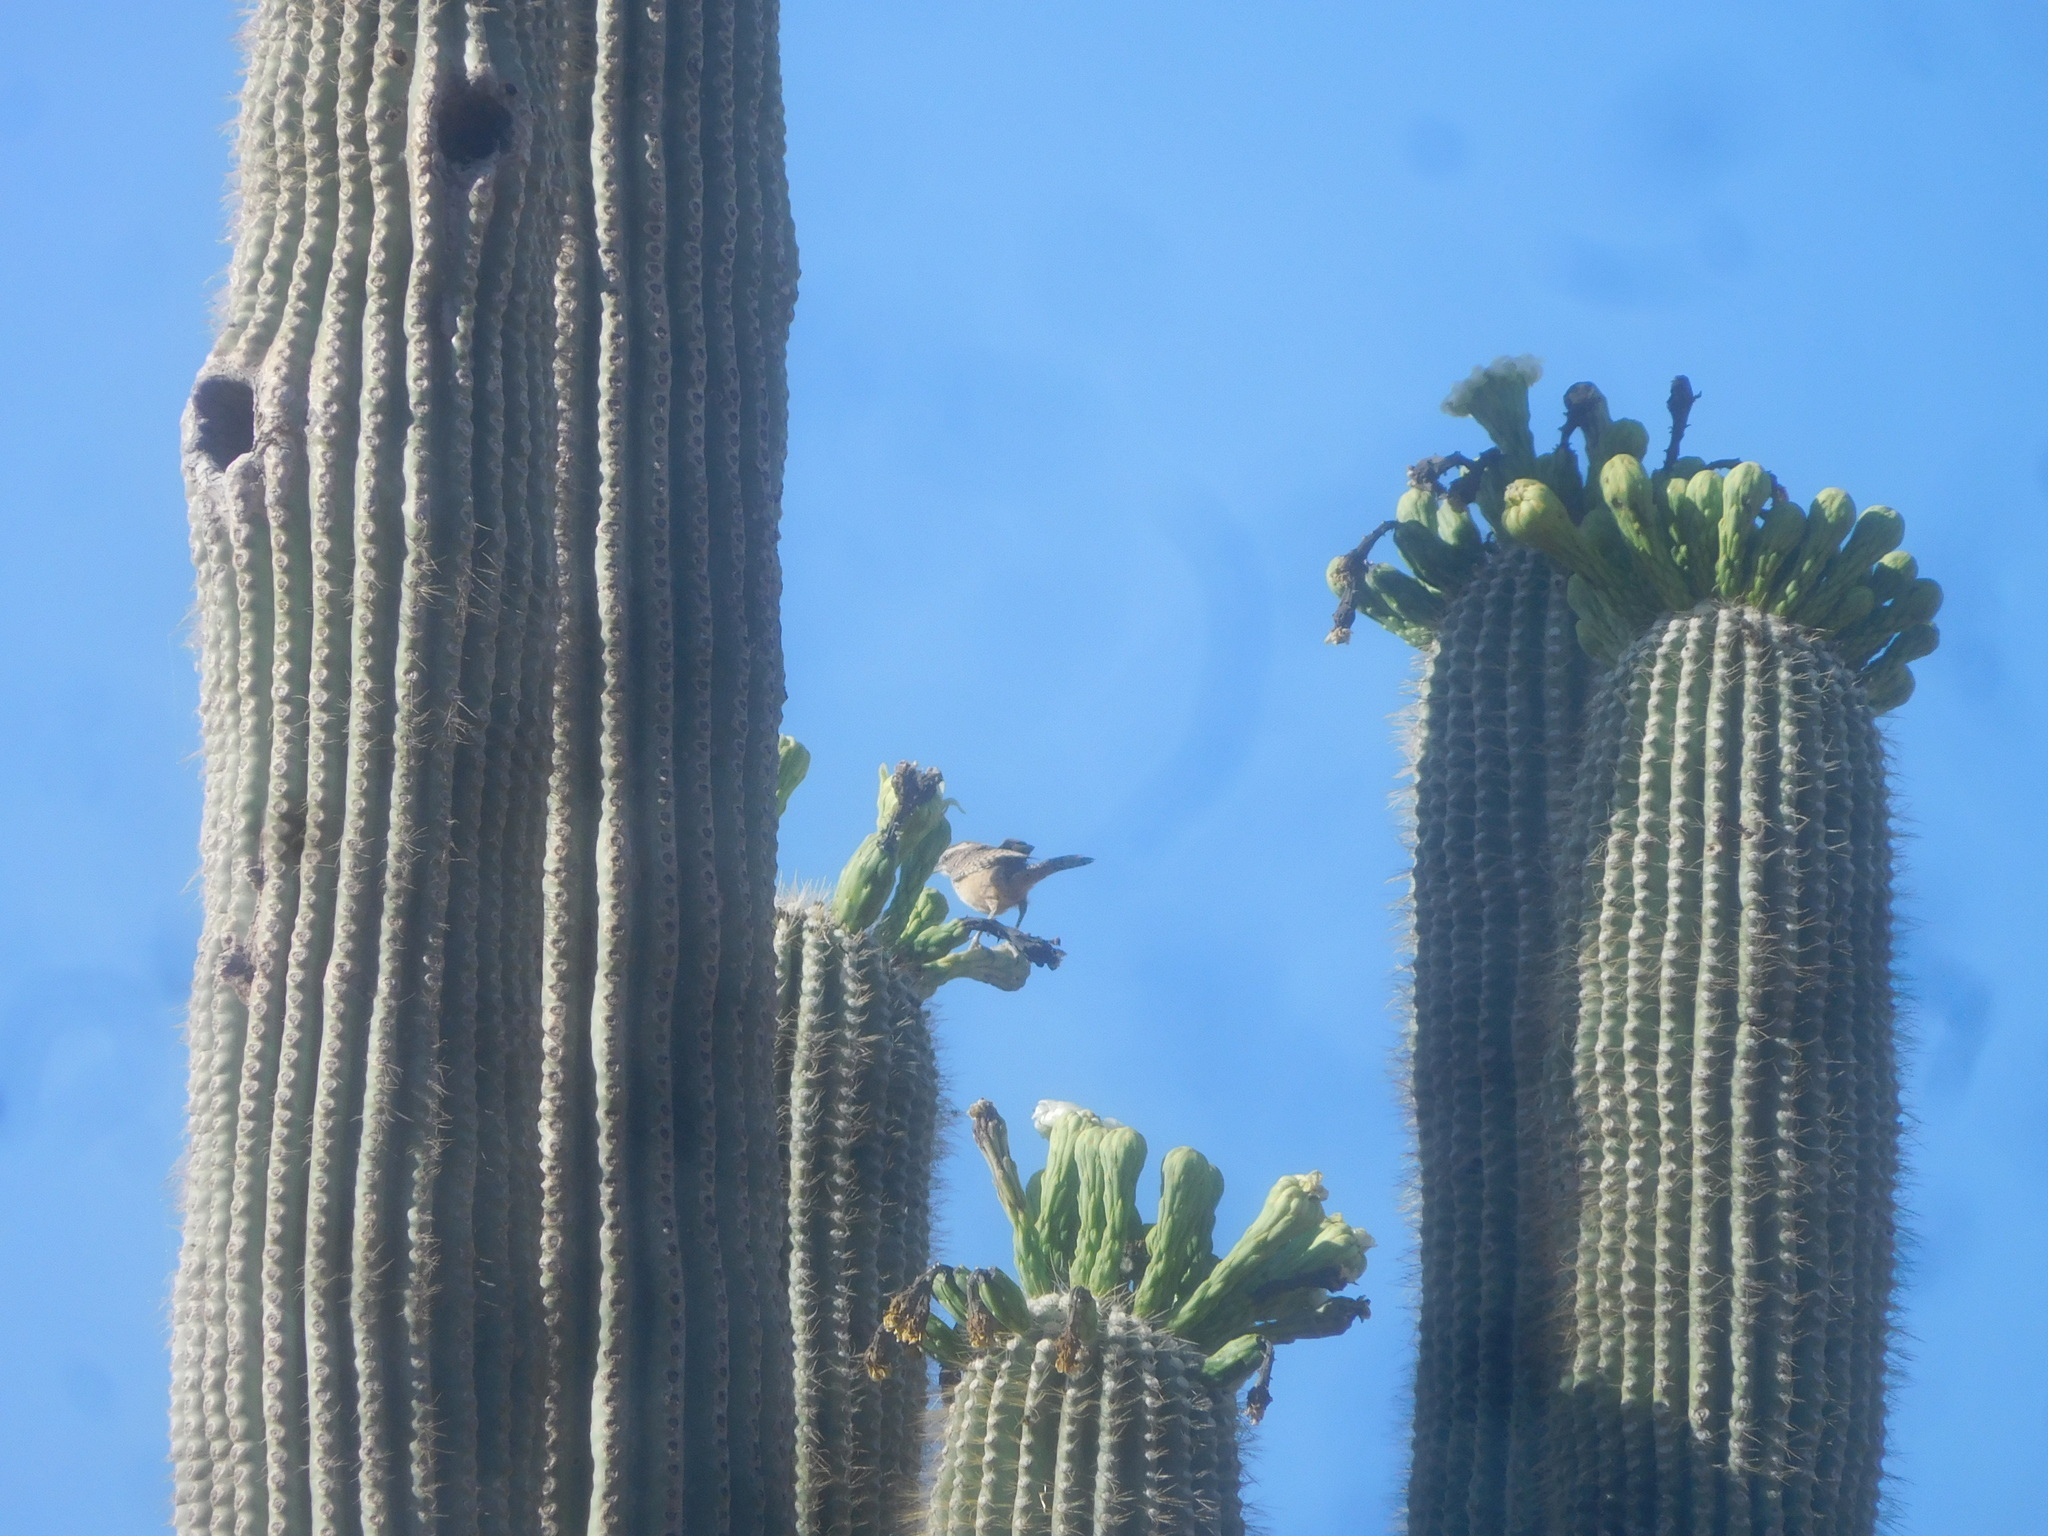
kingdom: Animalia
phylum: Chordata
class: Aves
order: Passeriformes
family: Troglodytidae
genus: Campylorhynchus
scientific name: Campylorhynchus brunneicapillus
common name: Cactus wren
